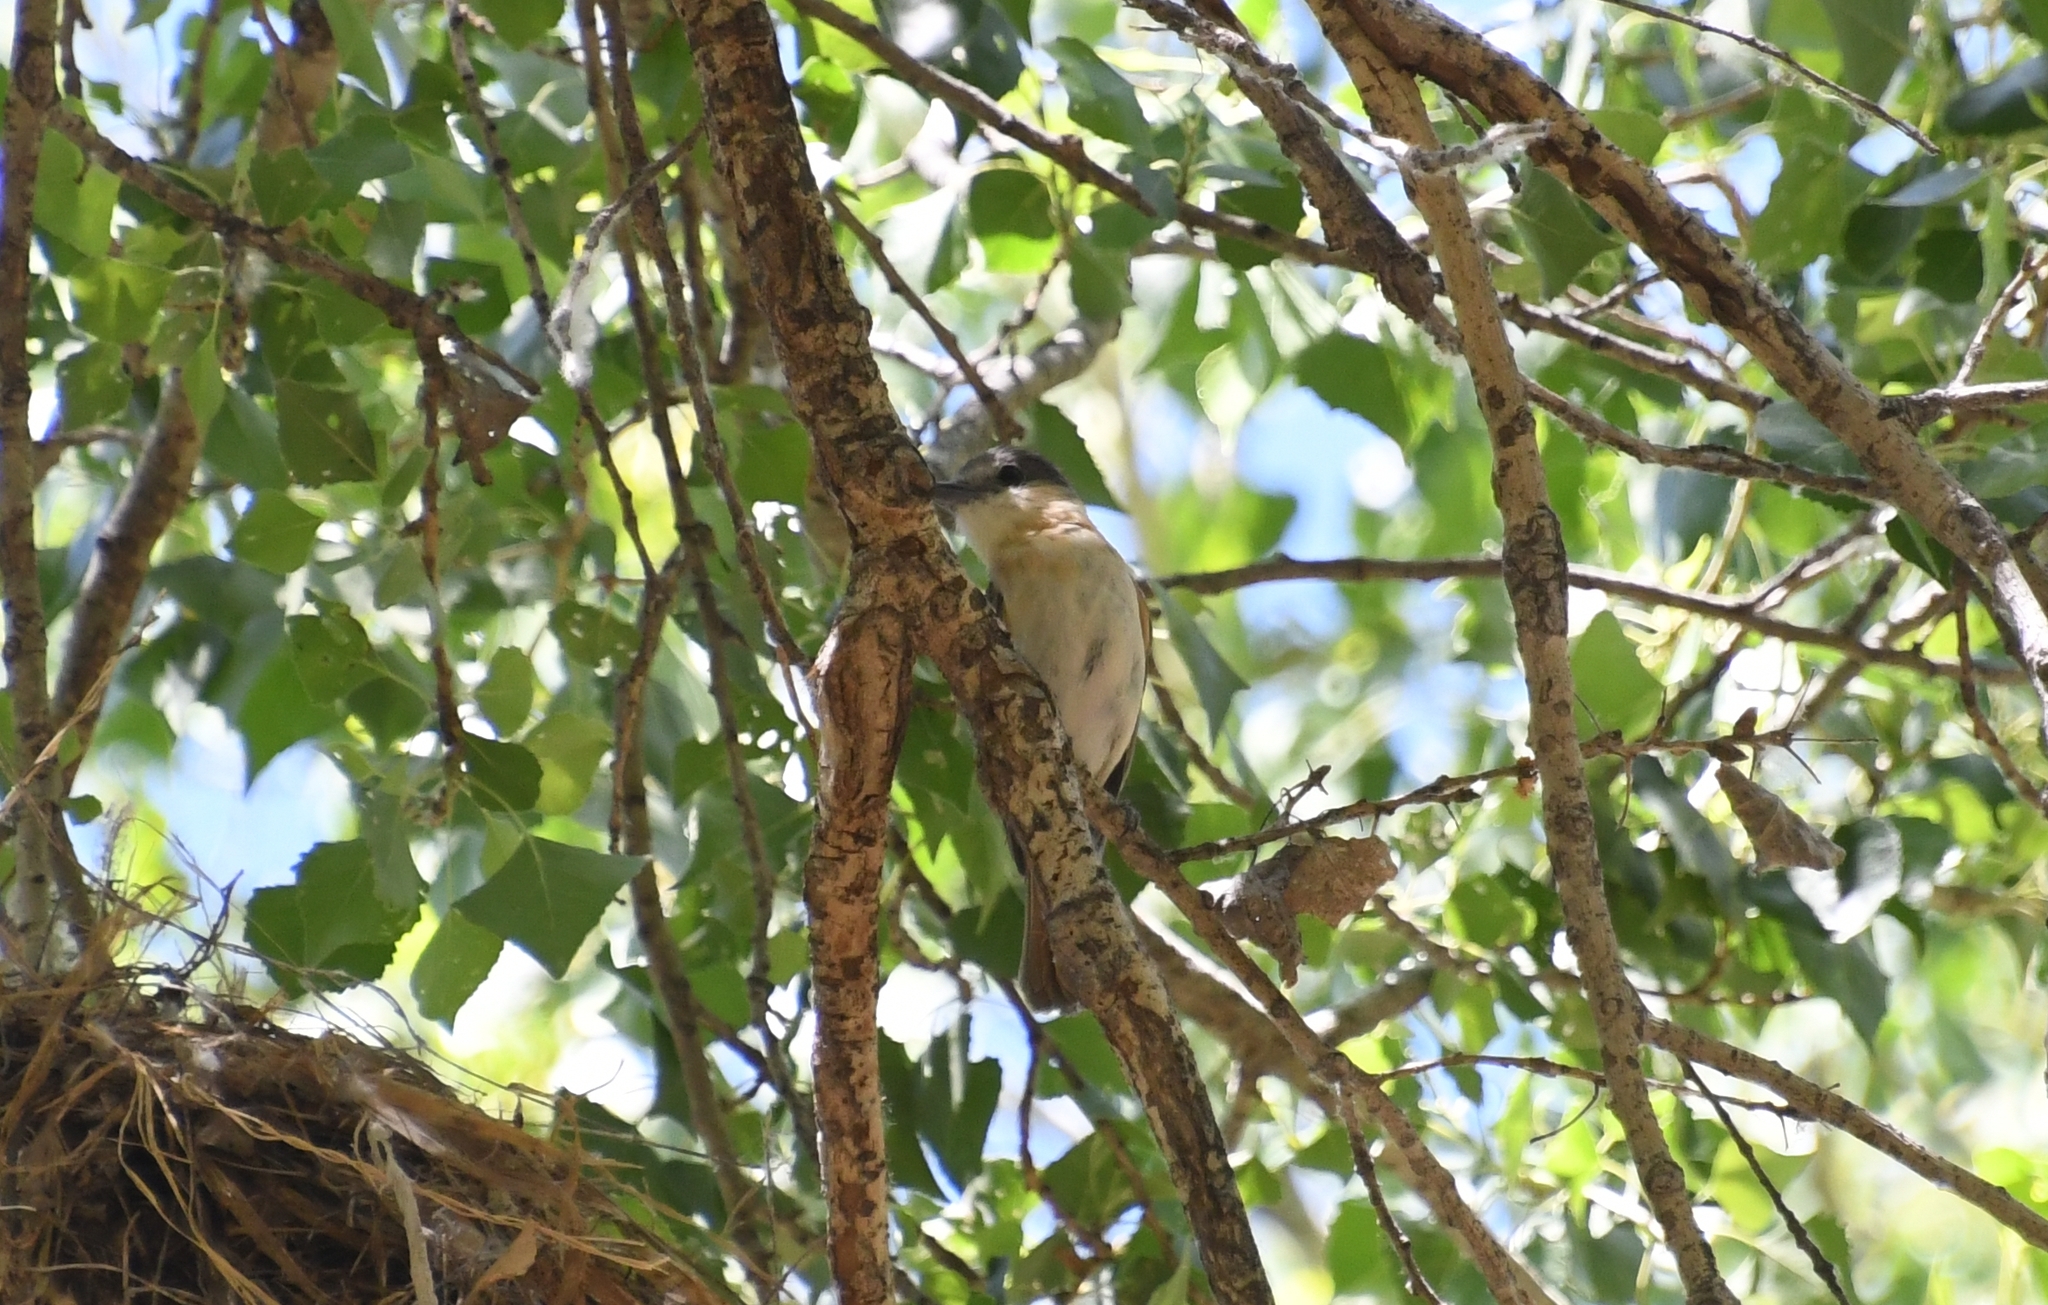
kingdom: Animalia
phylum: Chordata
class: Aves
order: Passeriformes
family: Cotingidae
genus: Pachyramphus
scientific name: Pachyramphus aglaiae
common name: Rose-throated becard
